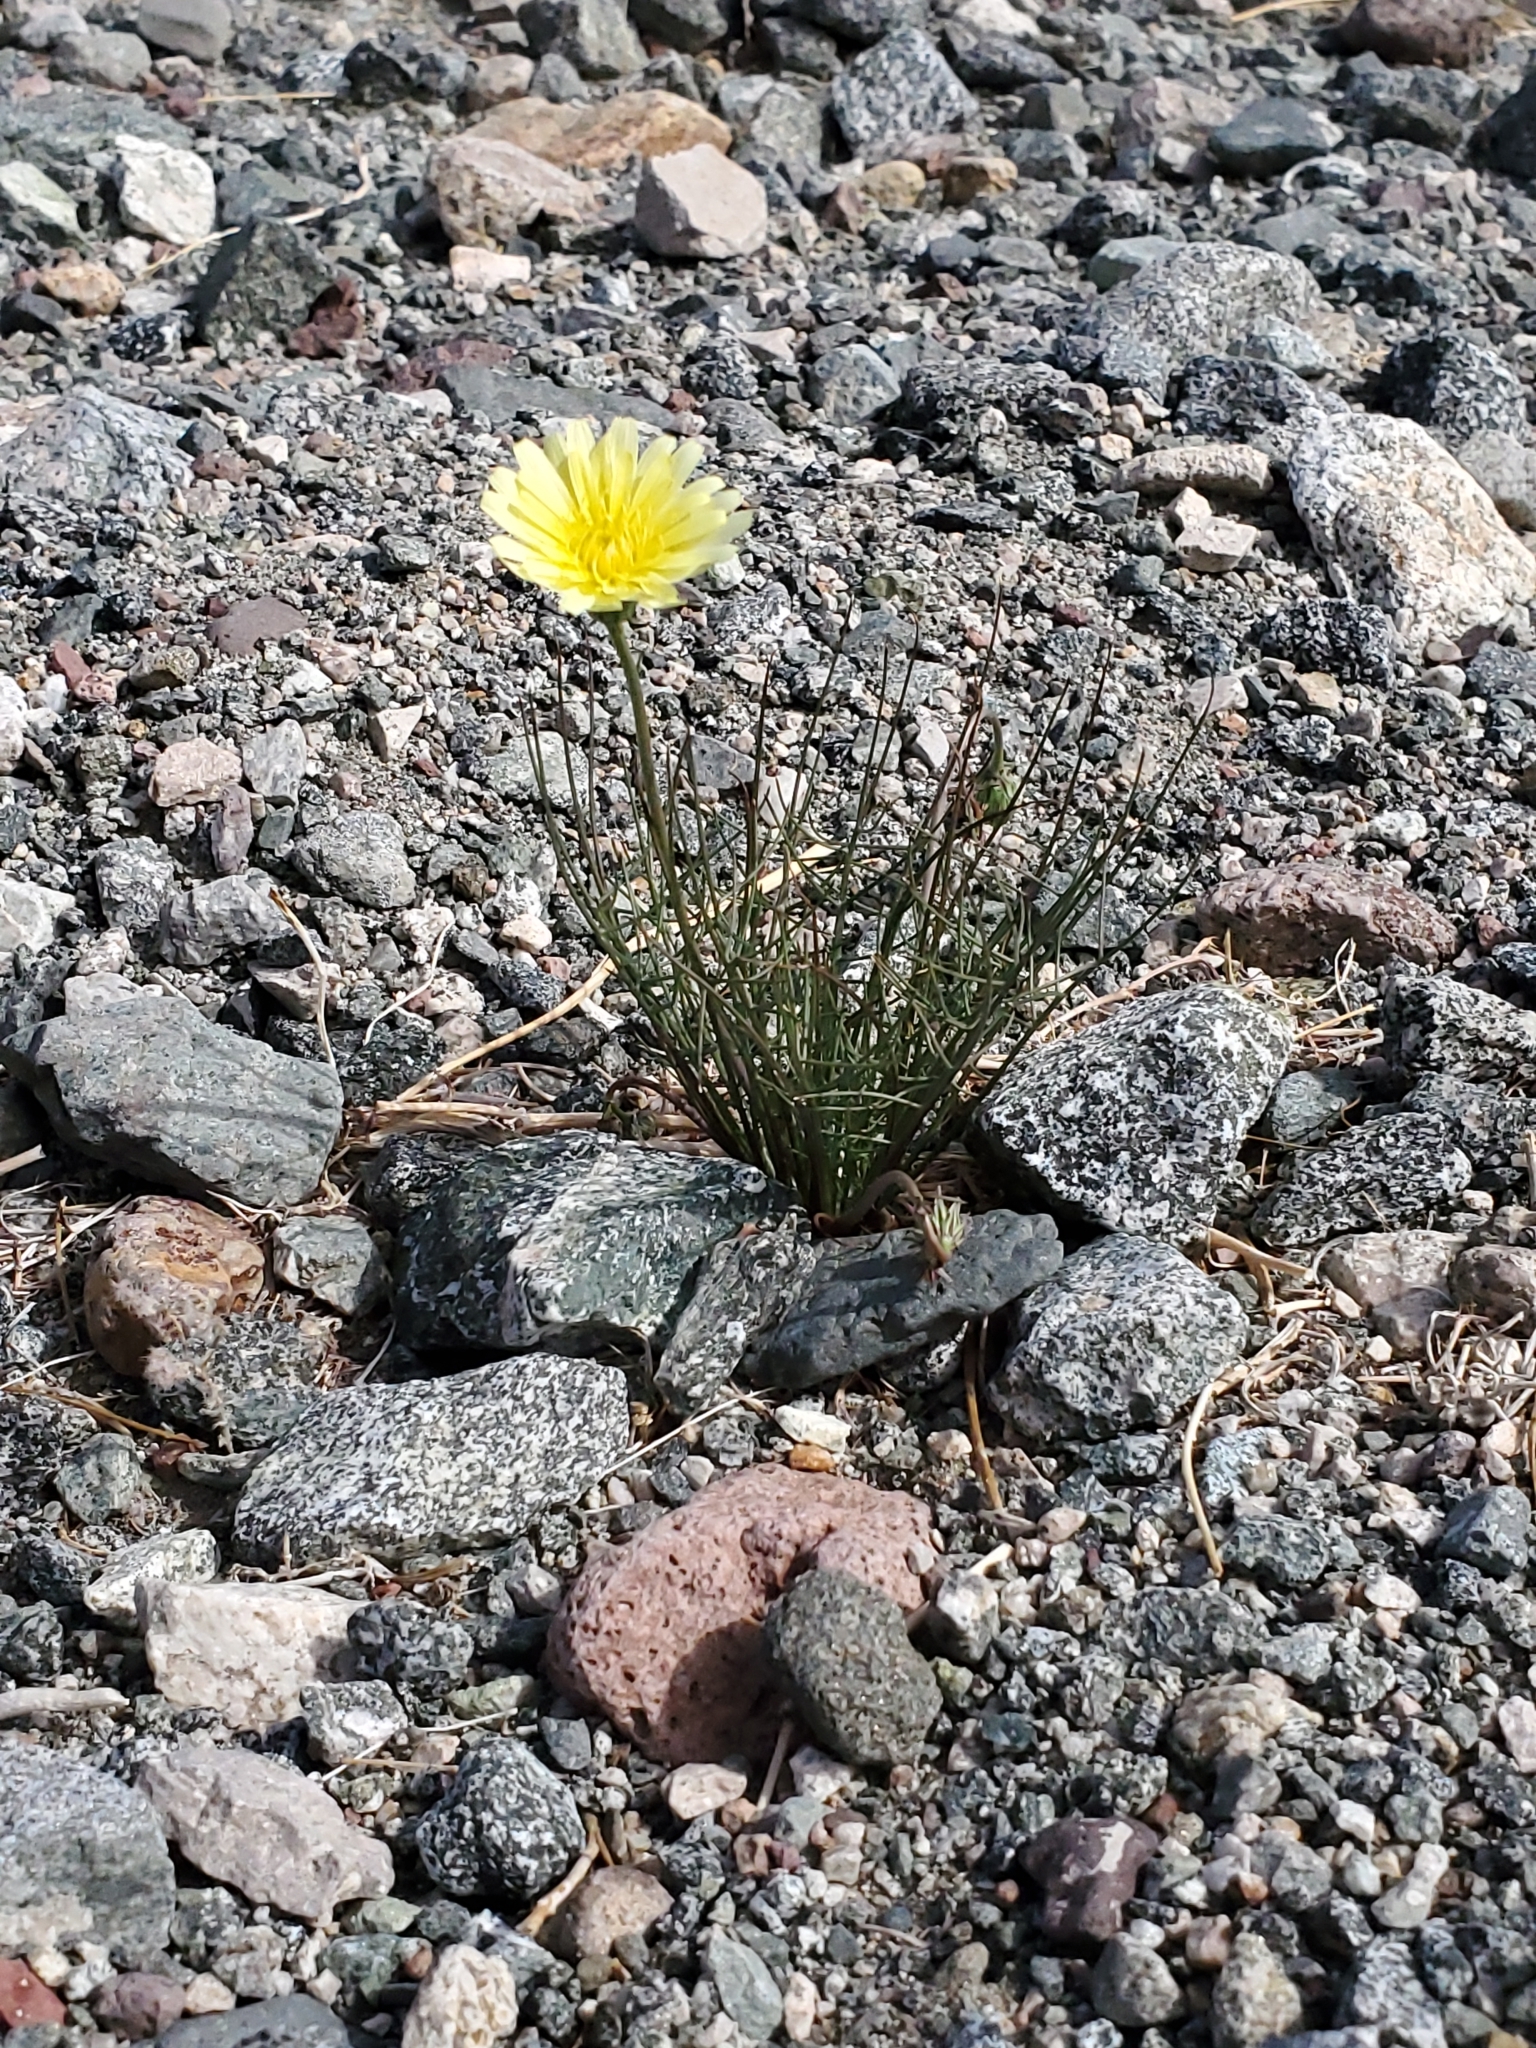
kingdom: Plantae
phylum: Tracheophyta
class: Magnoliopsida
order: Asterales
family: Asteraceae
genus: Malacothrix
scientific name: Malacothrix glabrata
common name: Smooth desert-dandelion
